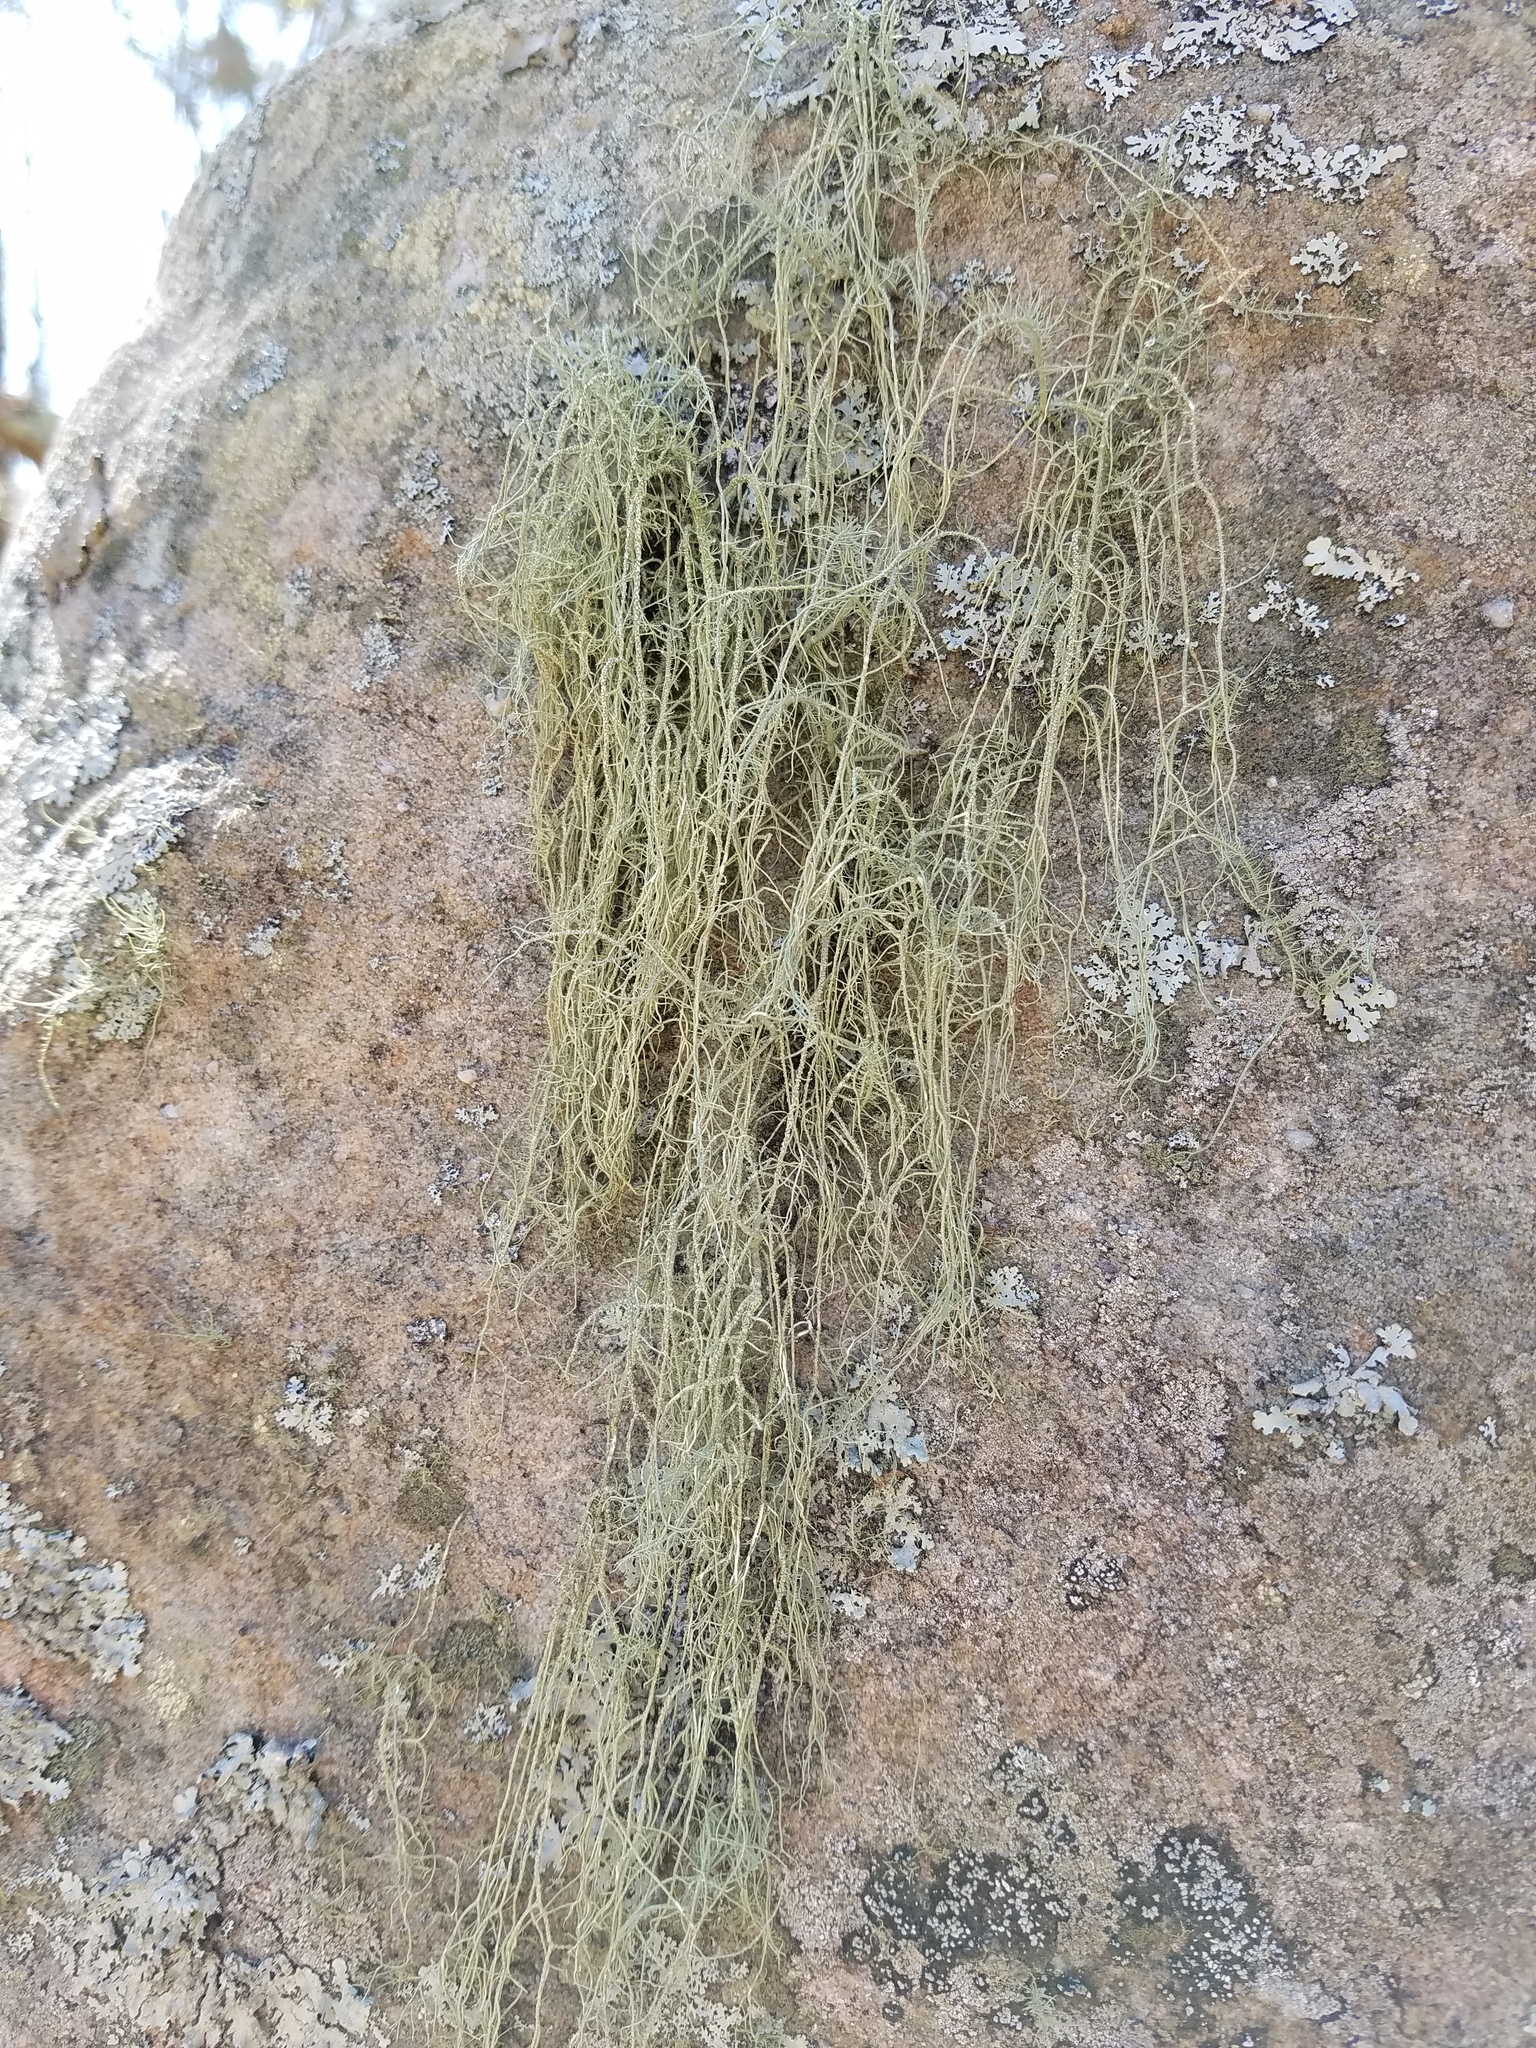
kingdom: Fungi
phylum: Ascomycota
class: Lecanoromycetes
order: Lecanorales
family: Parmeliaceae
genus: Usnea
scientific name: Usnea subscabrosa
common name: Beard lichen
